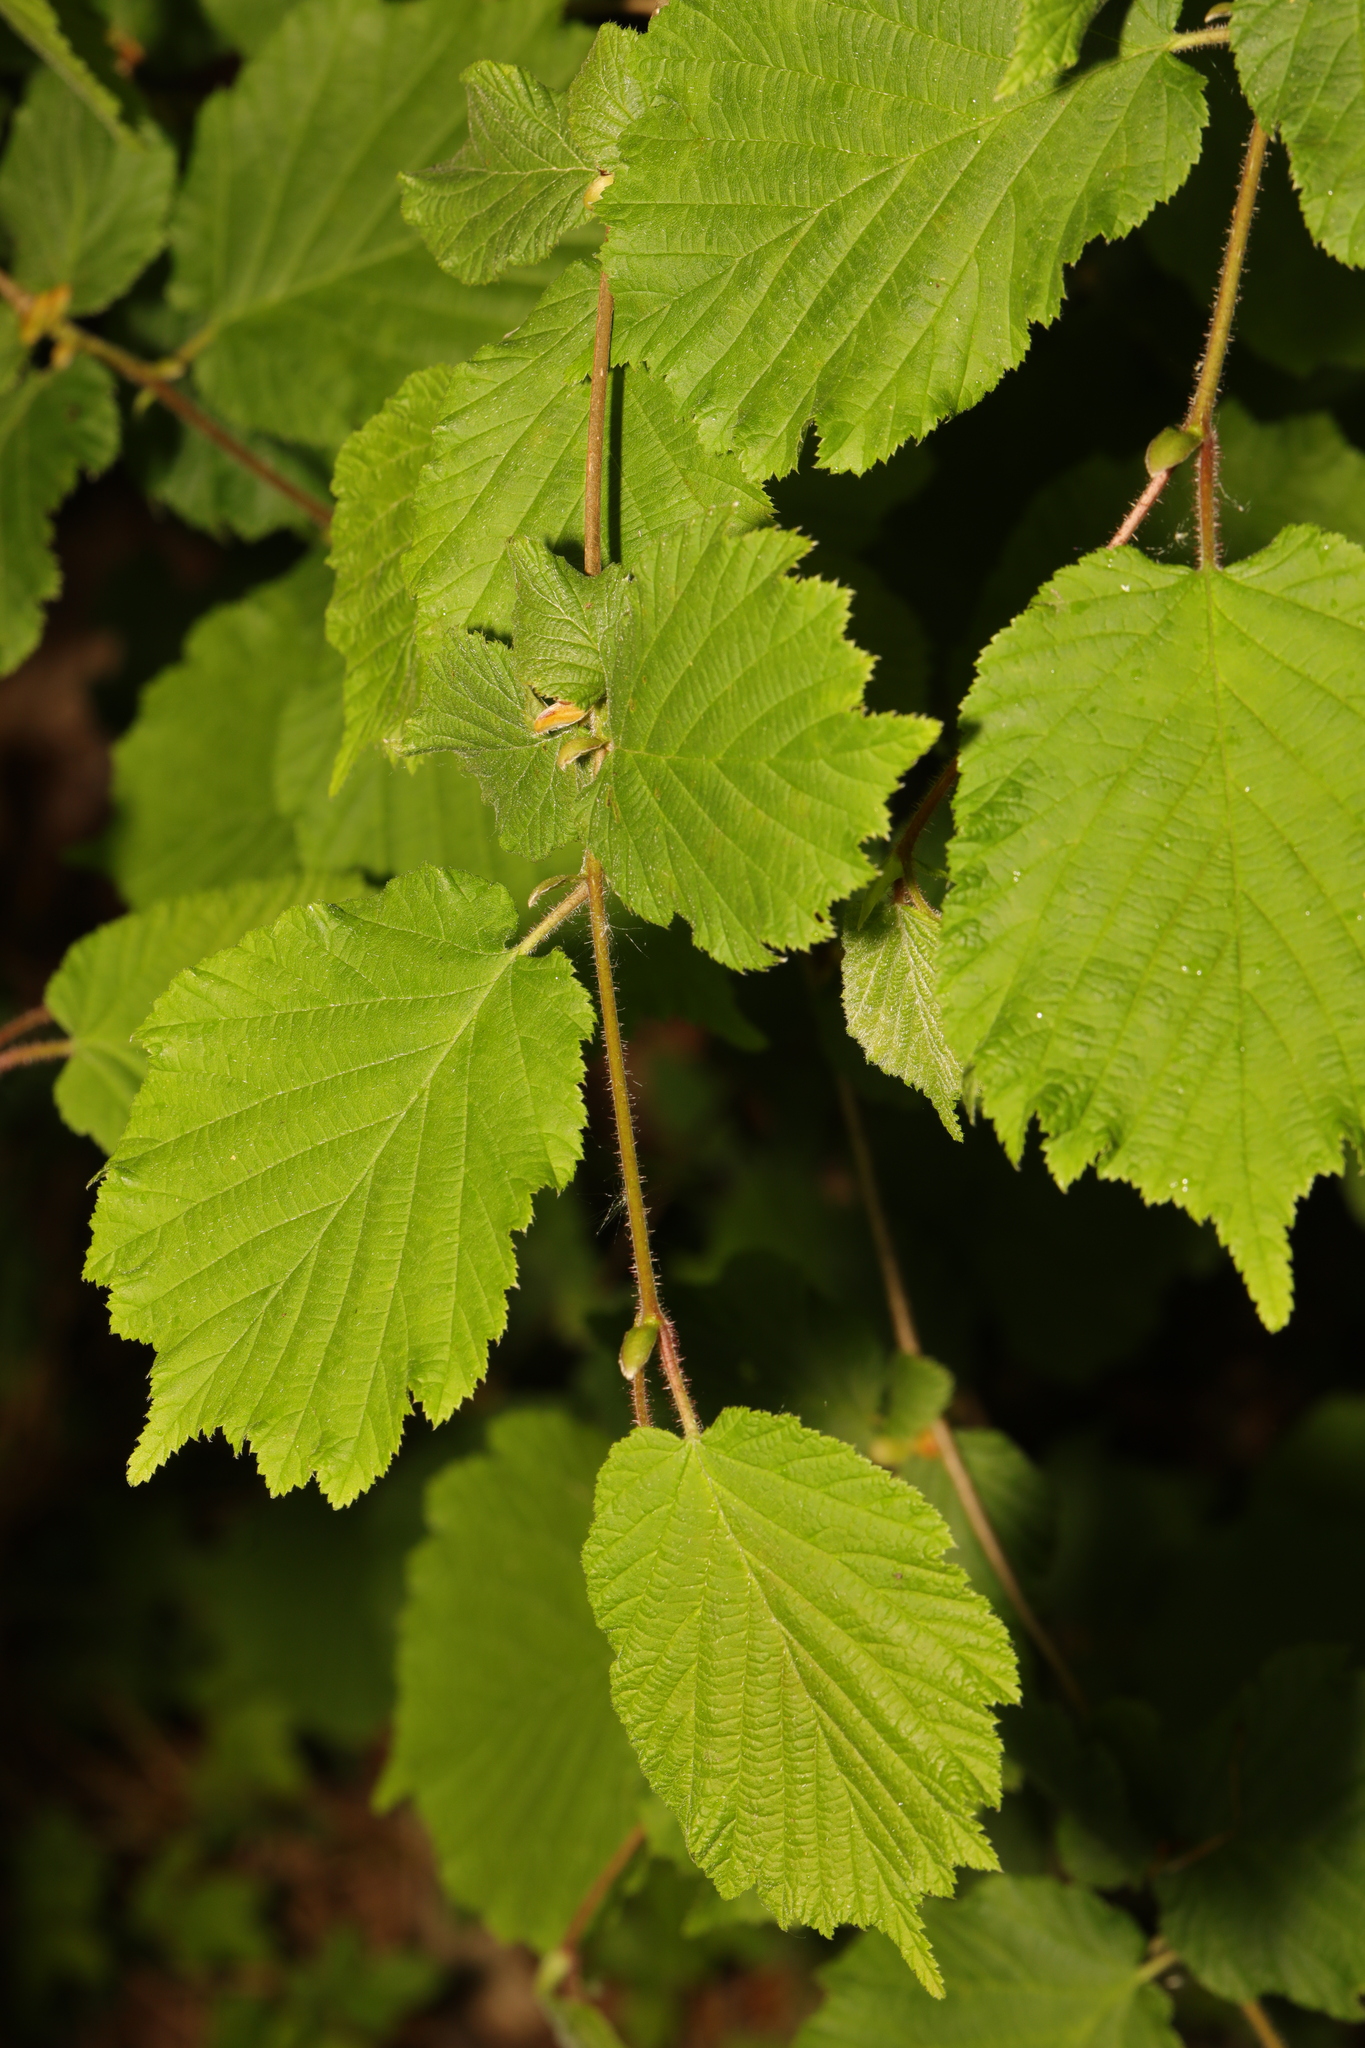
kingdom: Plantae
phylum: Tracheophyta
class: Magnoliopsida
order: Fagales
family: Betulaceae
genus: Corylus
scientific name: Corylus avellana
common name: European hazel
